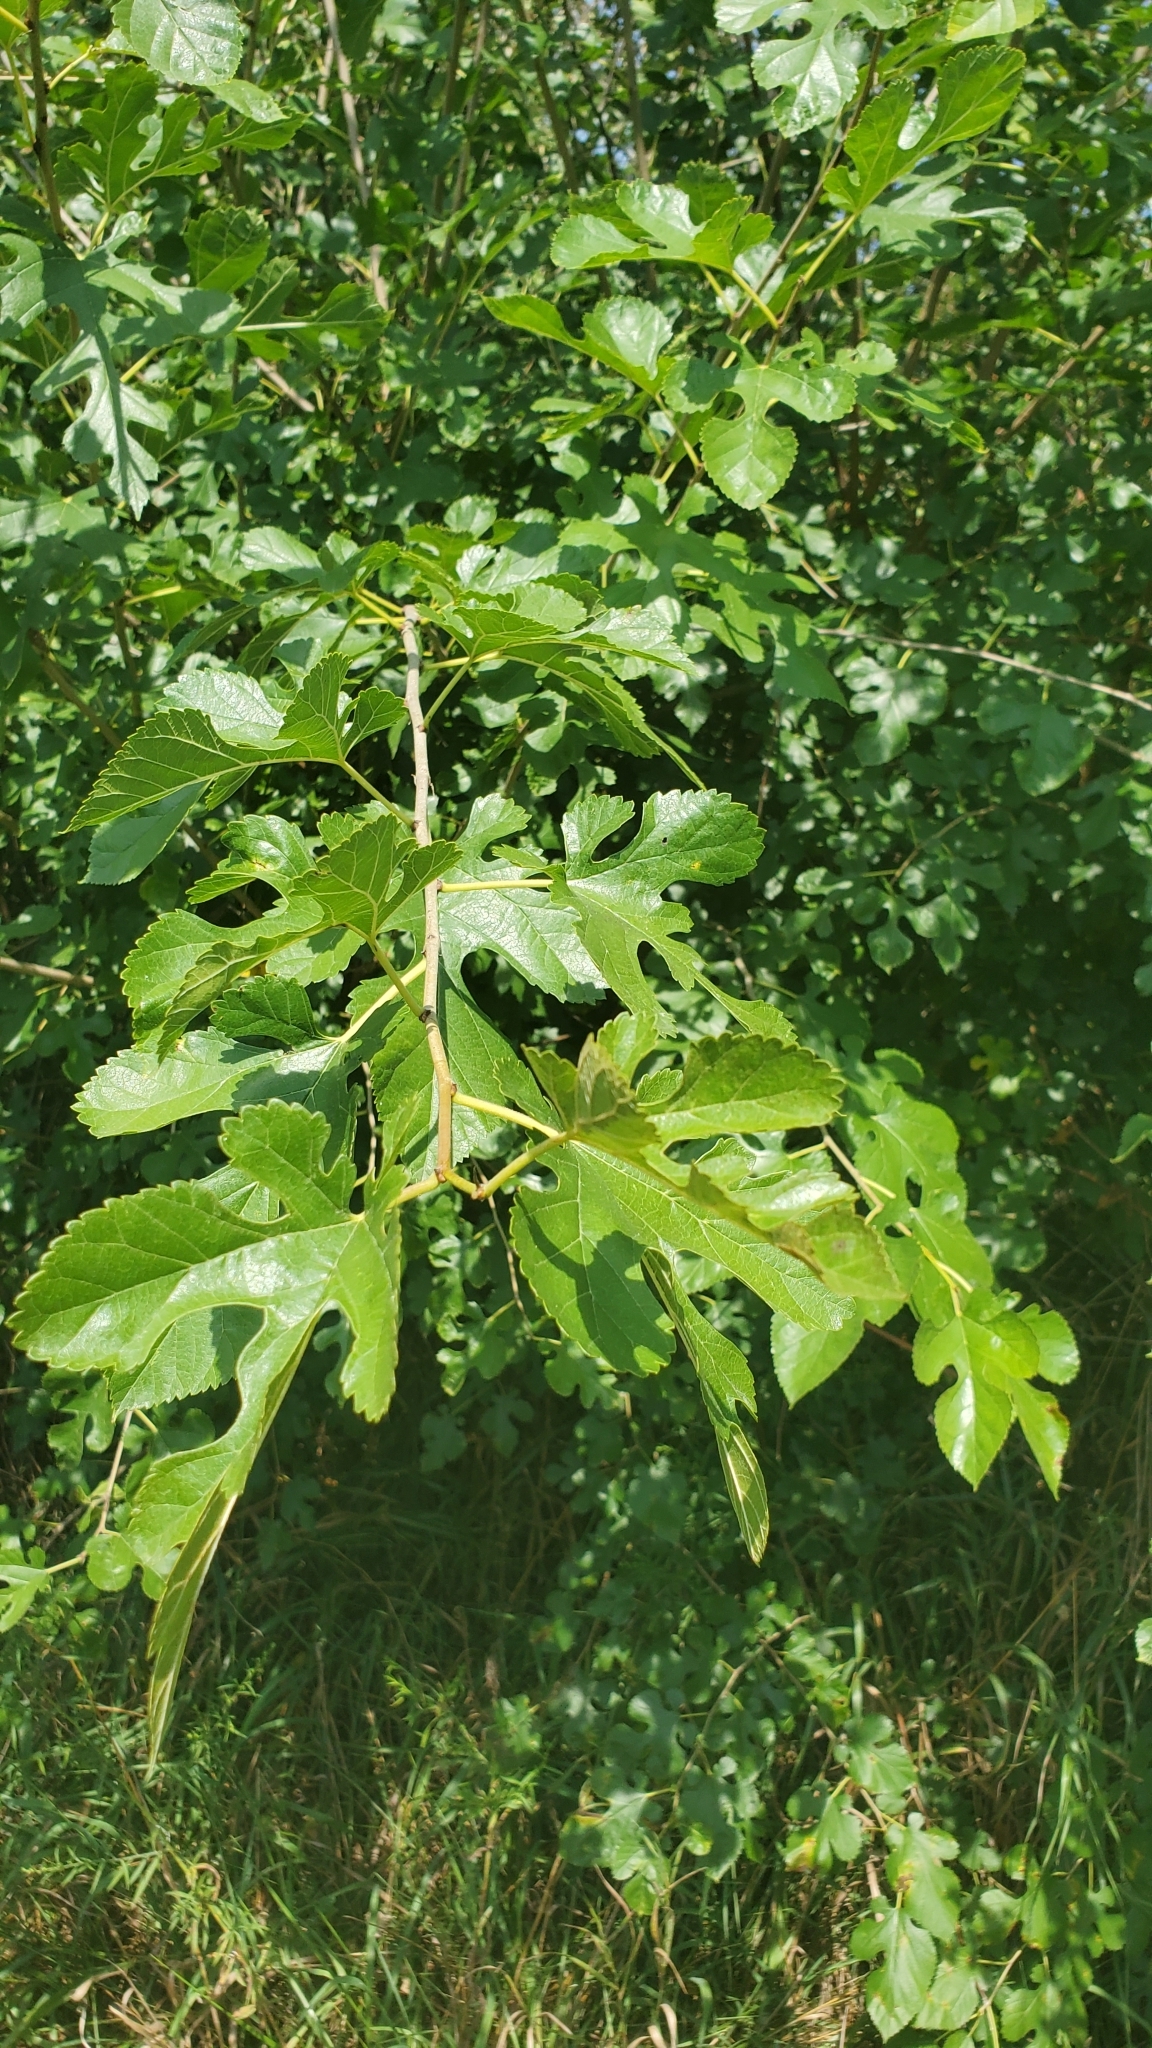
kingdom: Plantae
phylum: Tracheophyta
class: Magnoliopsida
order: Rosales
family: Moraceae
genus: Morus
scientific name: Morus alba
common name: White mulberry
